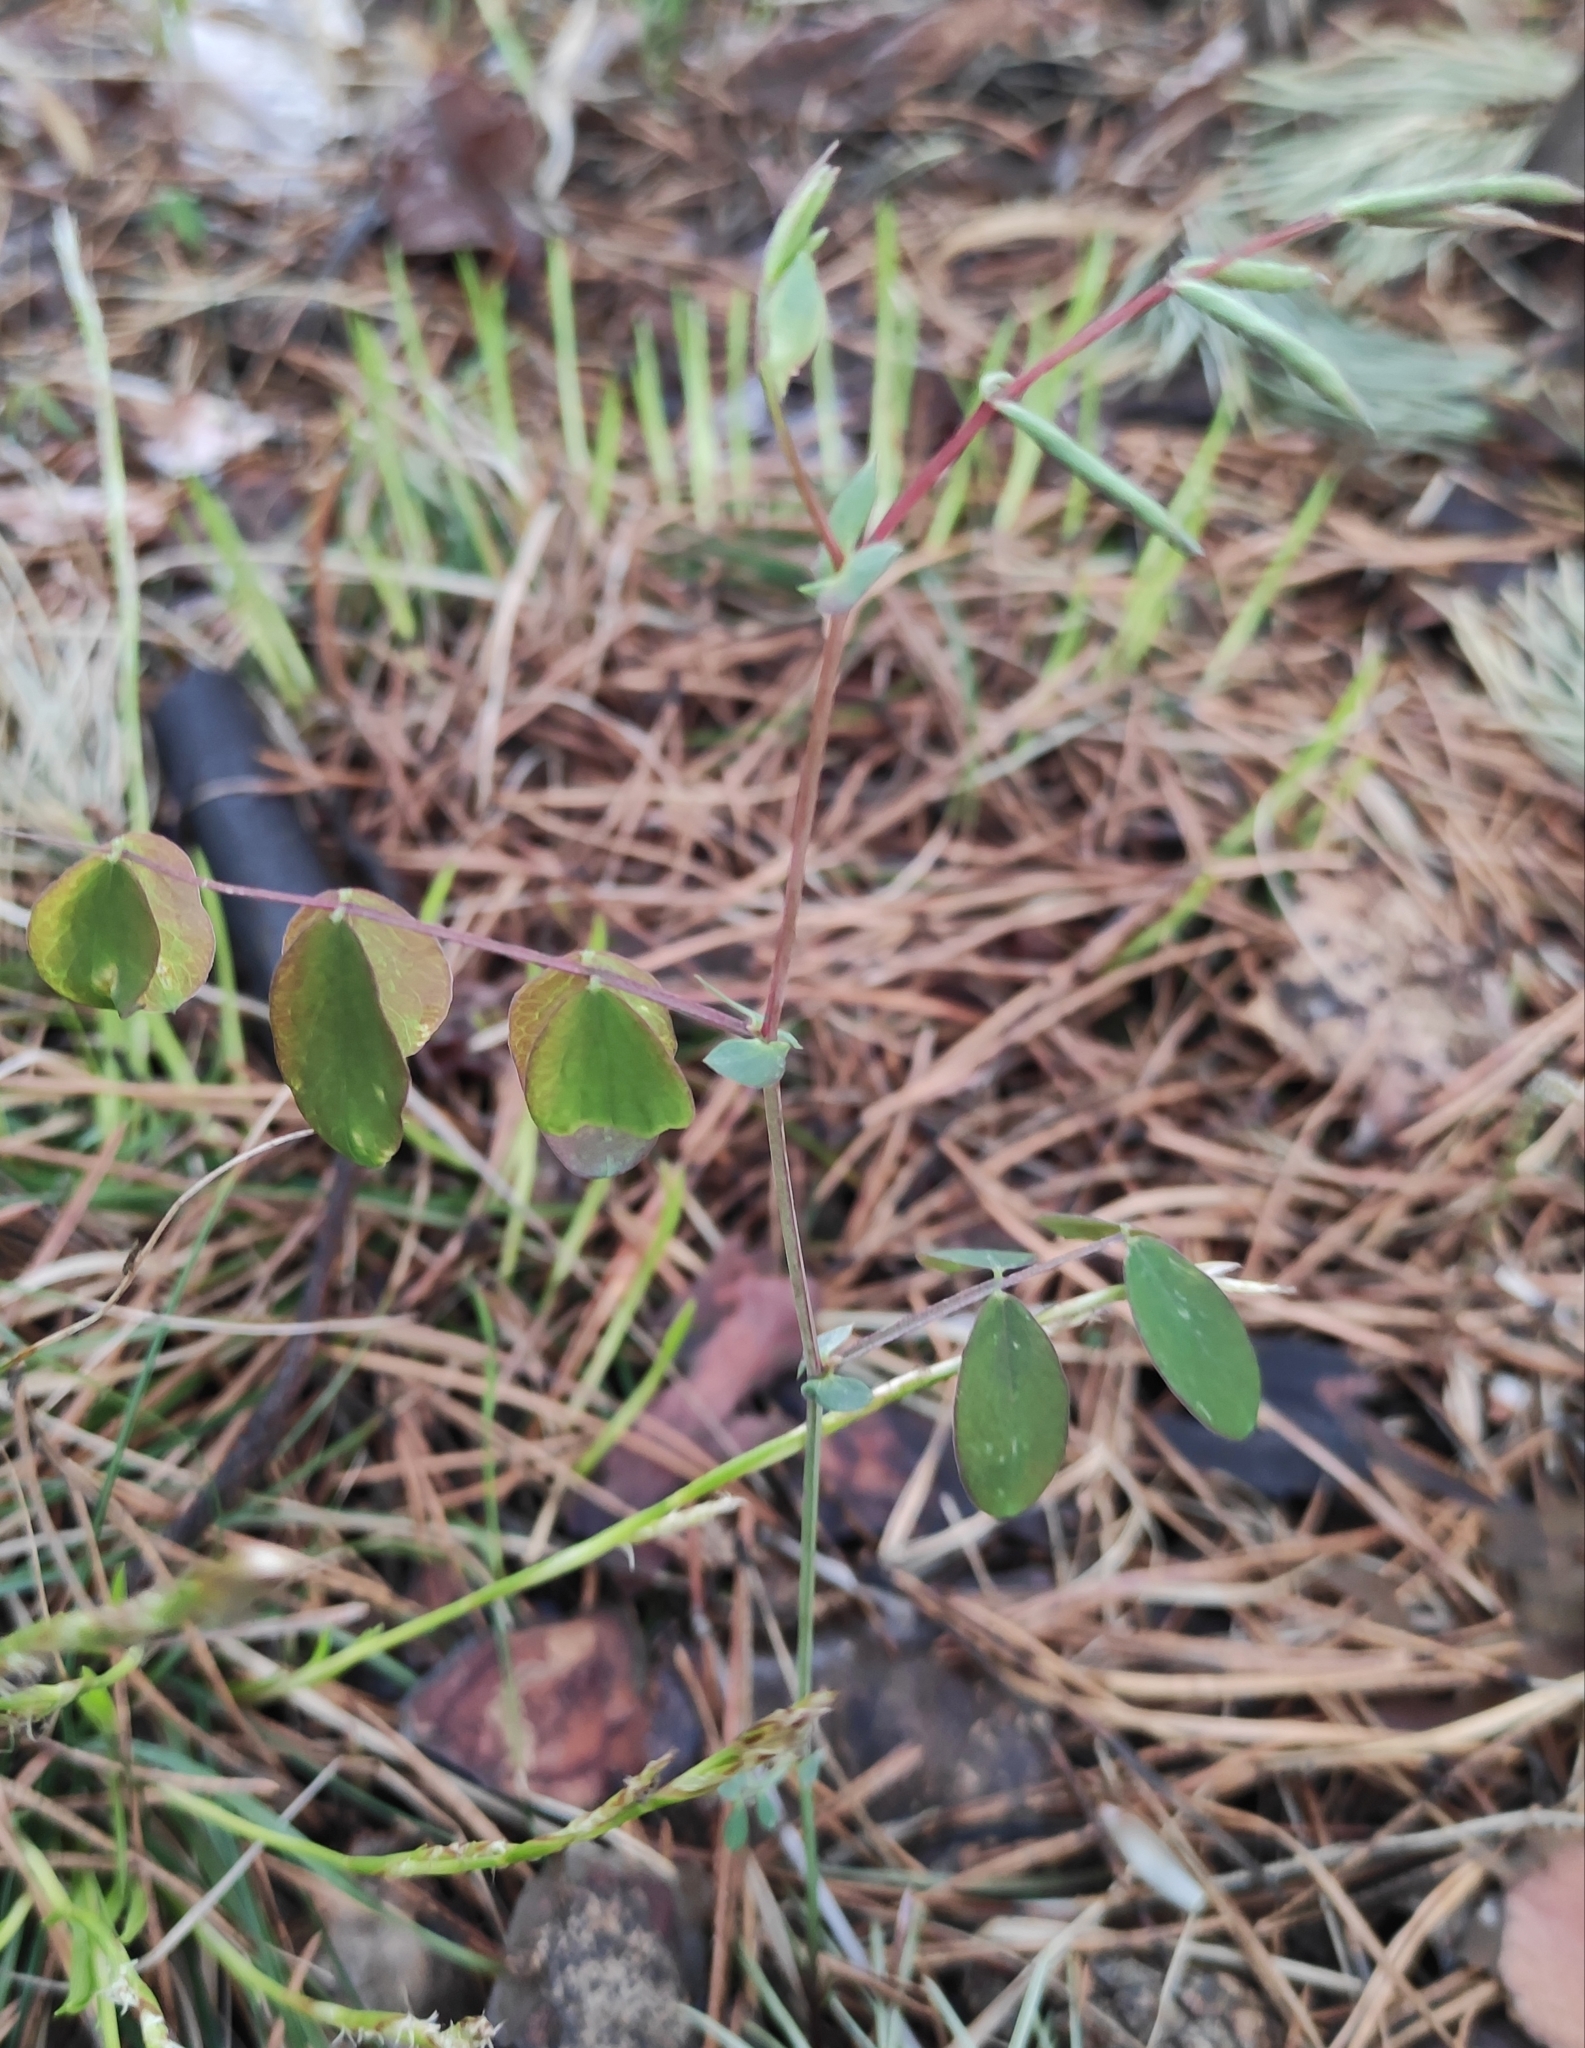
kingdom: Plantae
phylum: Tracheophyta
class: Magnoliopsida
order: Fabales
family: Fabaceae
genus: Lathyrus
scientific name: Lathyrus humilis
